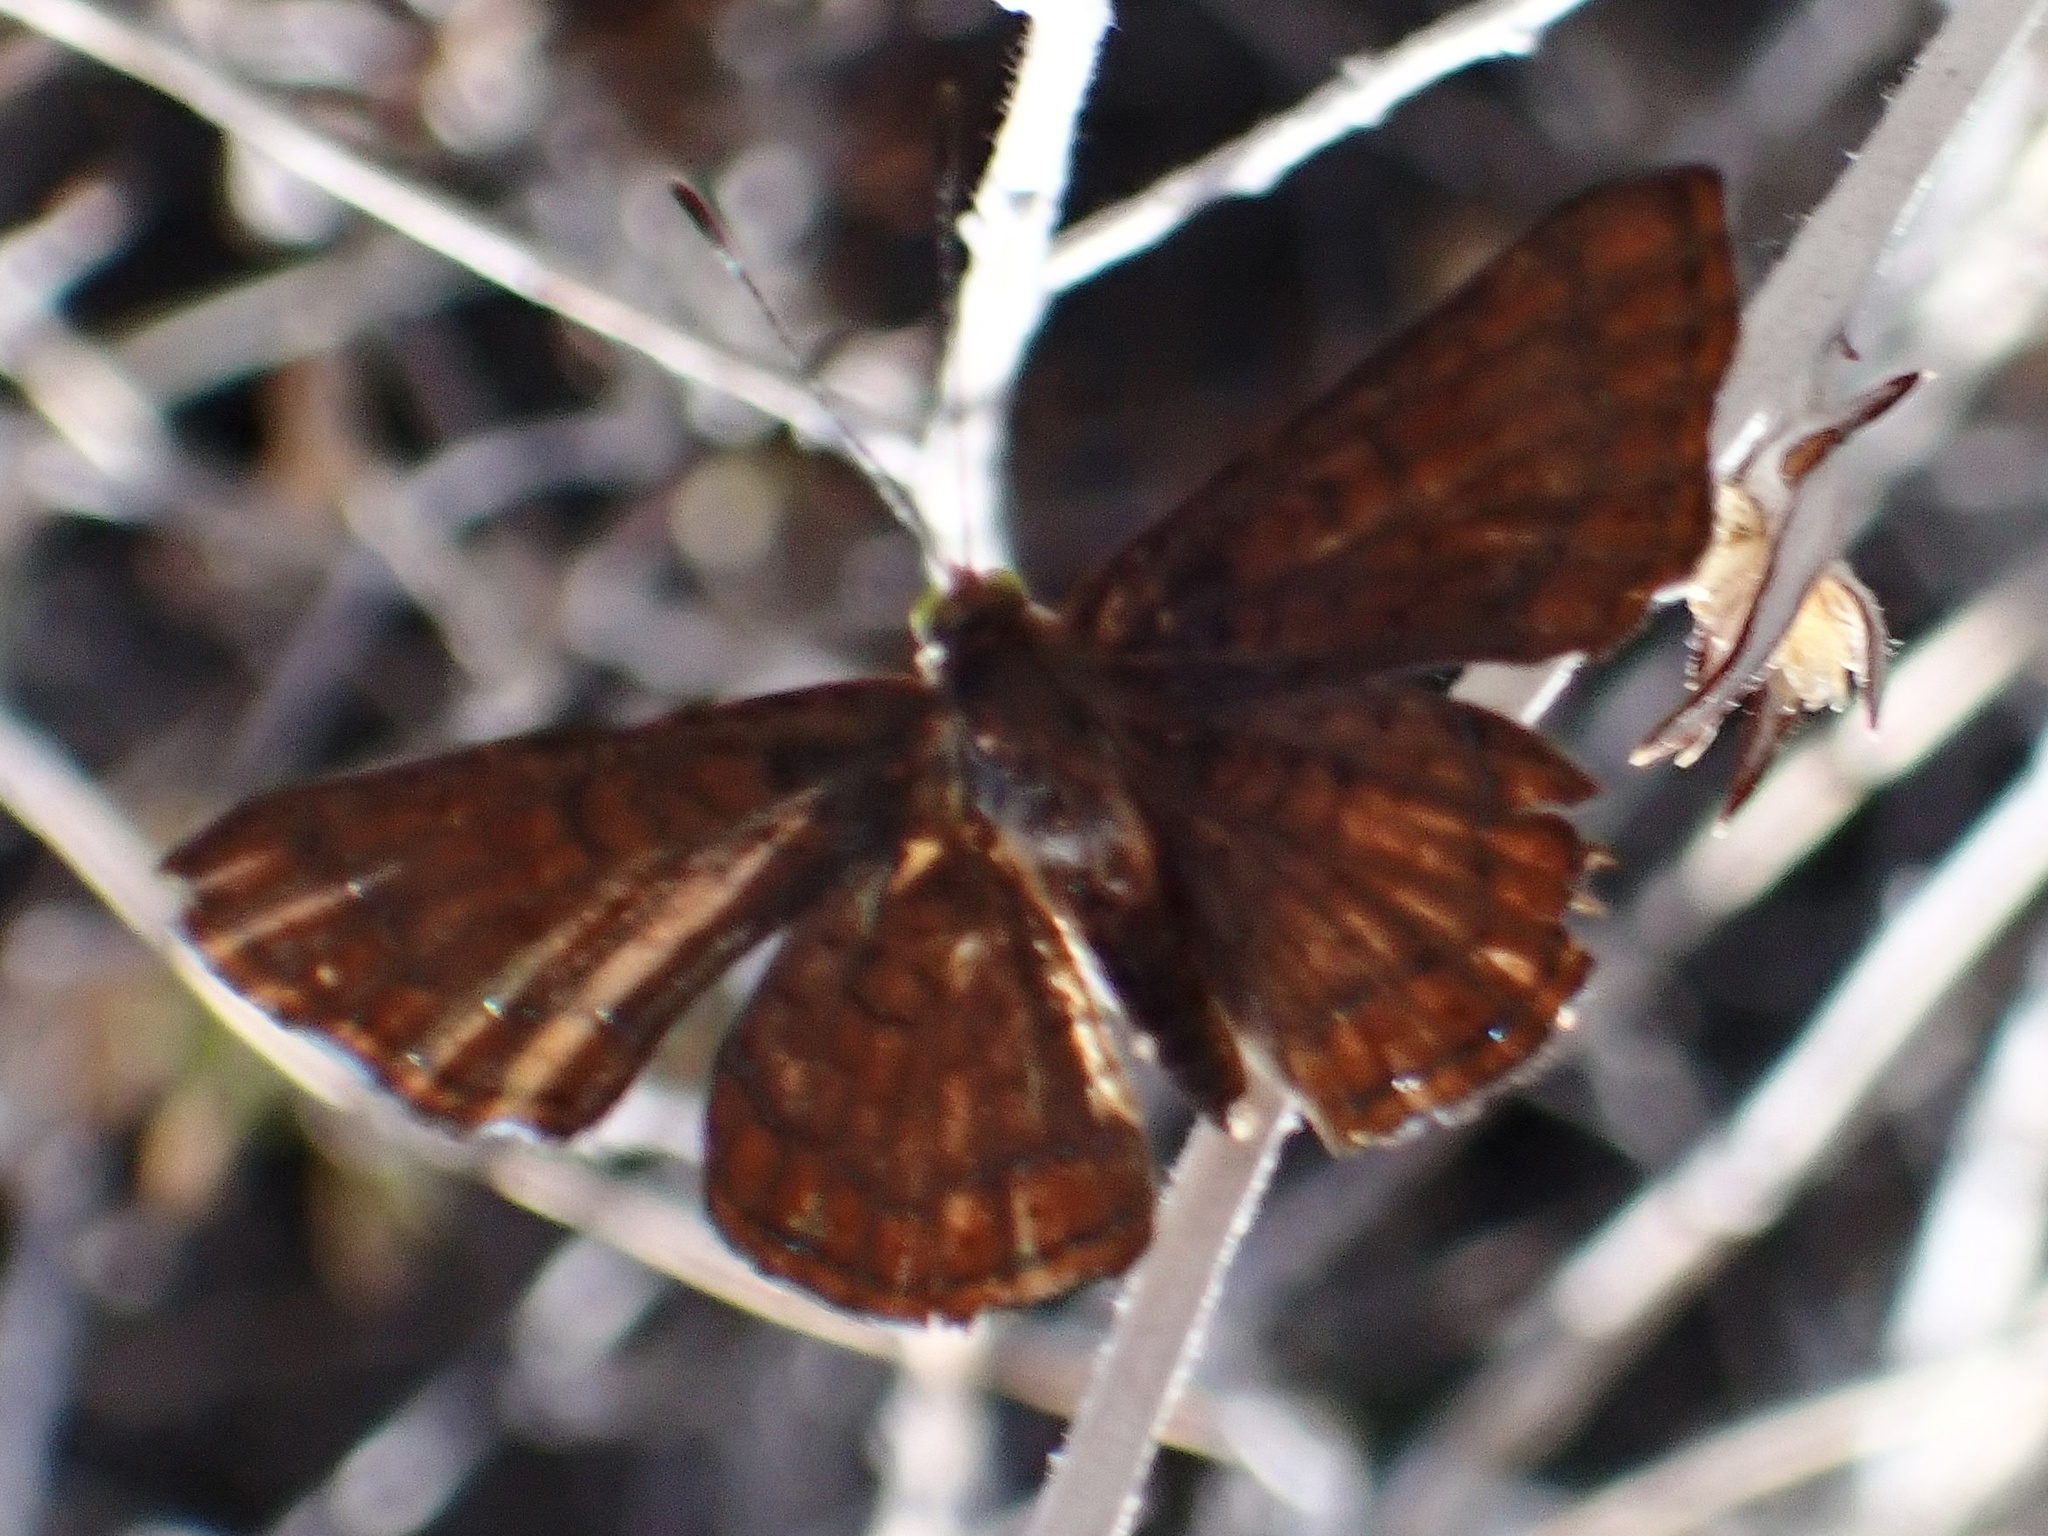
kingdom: Animalia
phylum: Arthropoda
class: Insecta
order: Lepidoptera
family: Lycaenidae
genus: Emesis
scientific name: Emesis wrighti
